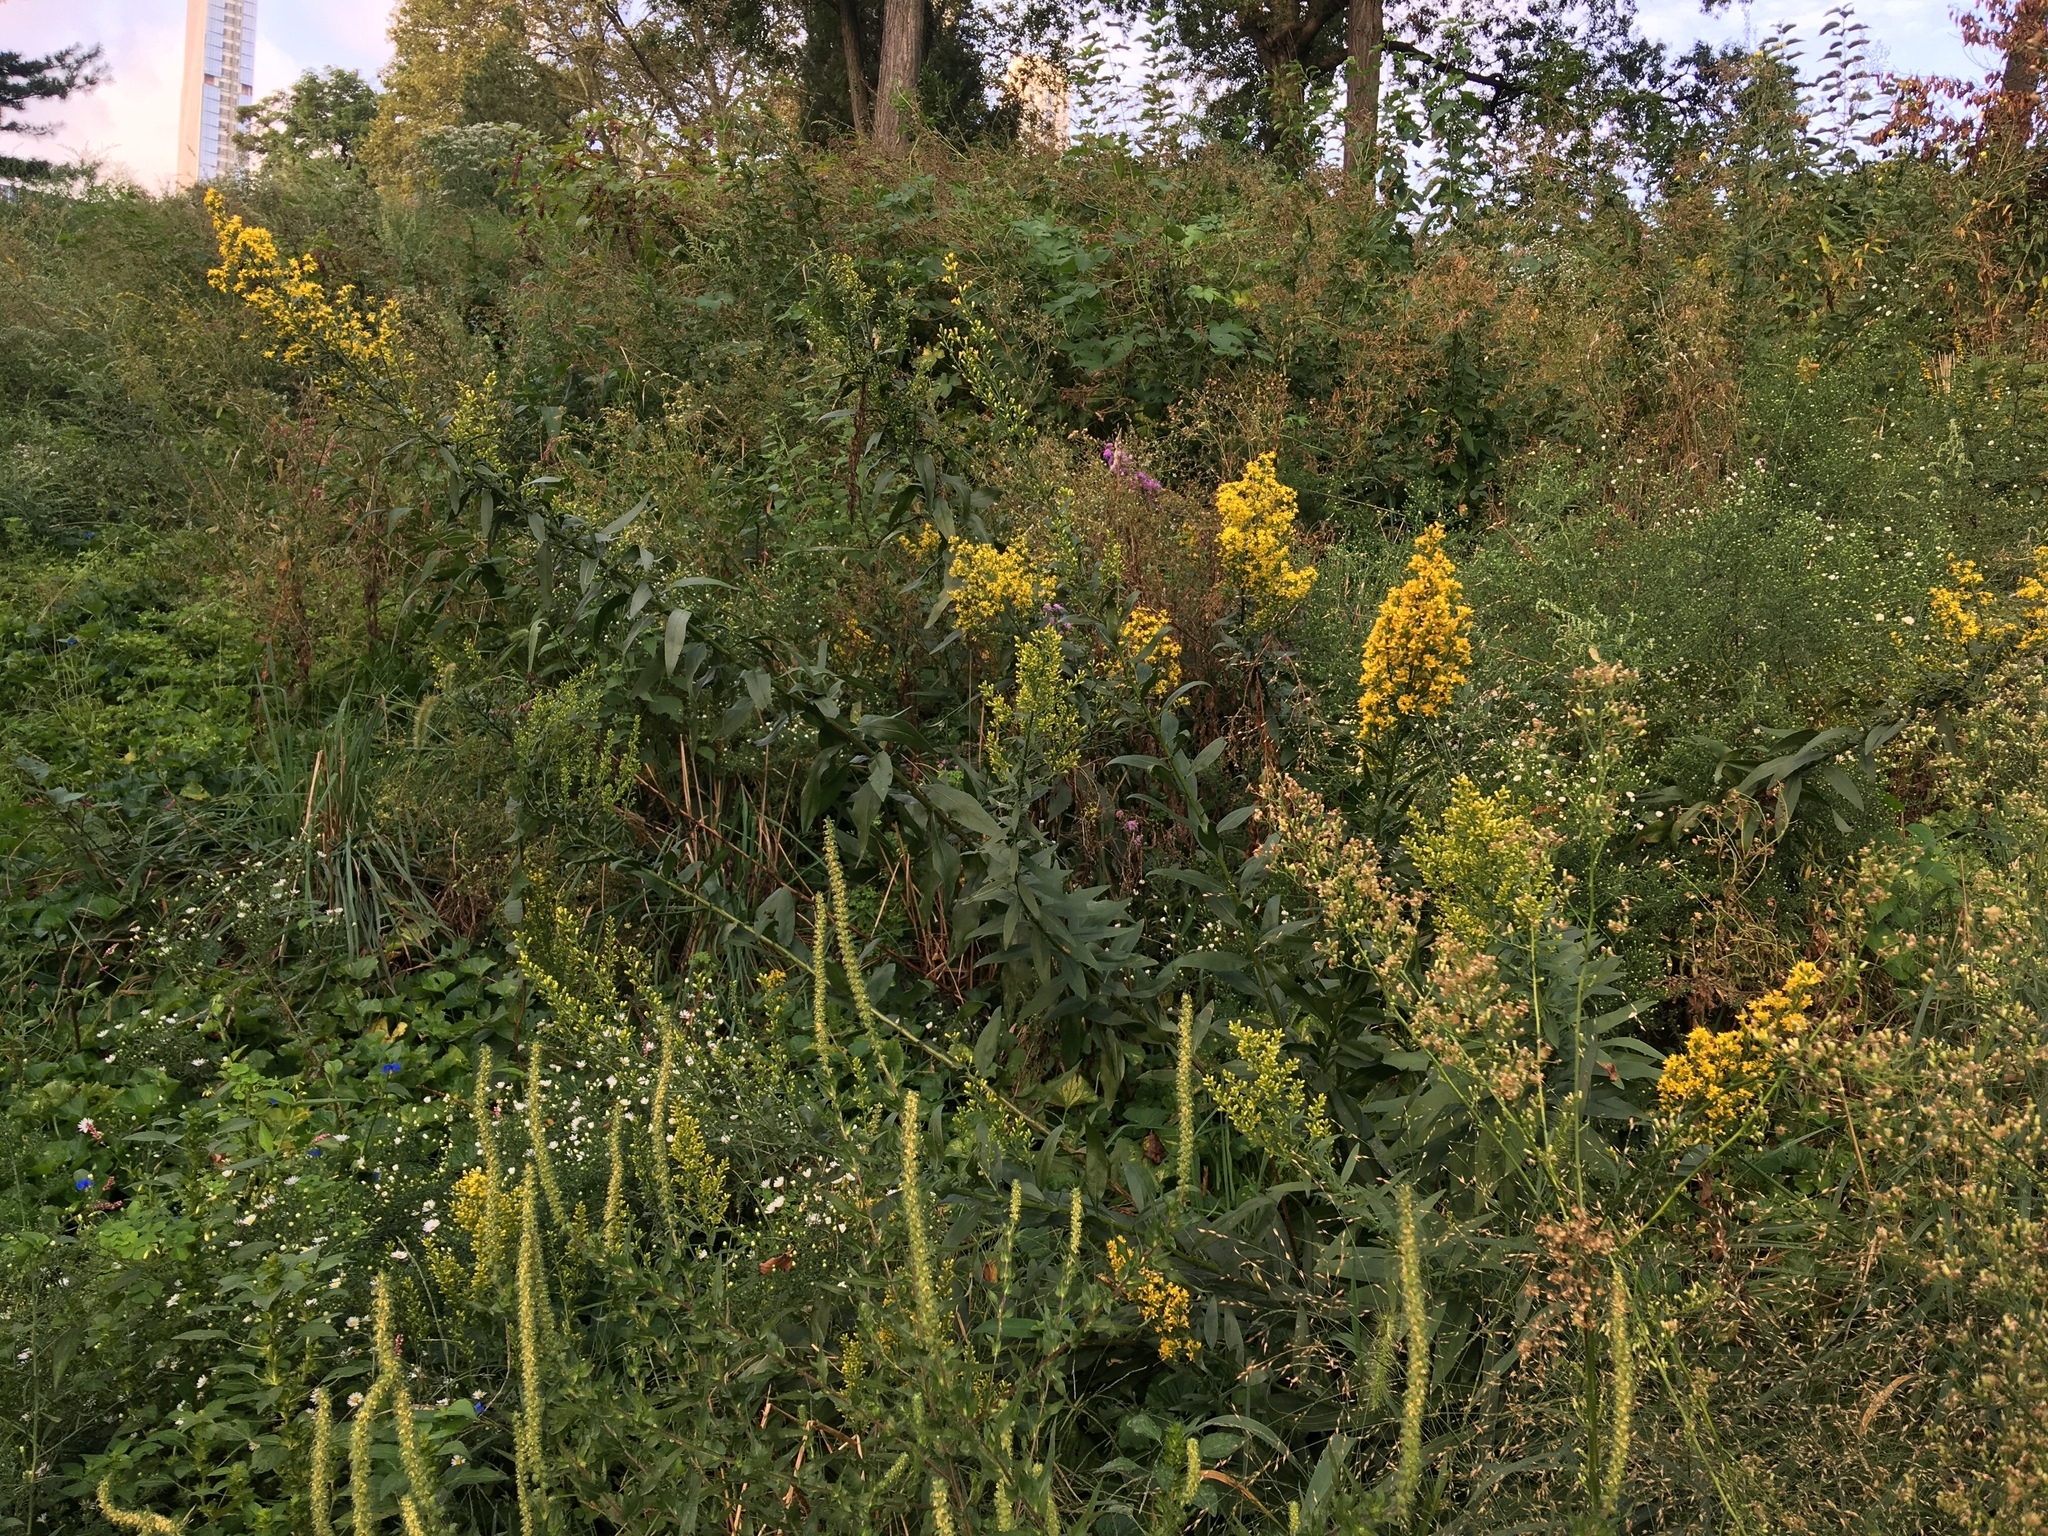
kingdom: Plantae
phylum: Tracheophyta
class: Magnoliopsida
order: Asterales
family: Asteraceae
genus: Solidago
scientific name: Solidago speciosa
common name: Showy goldenrod
